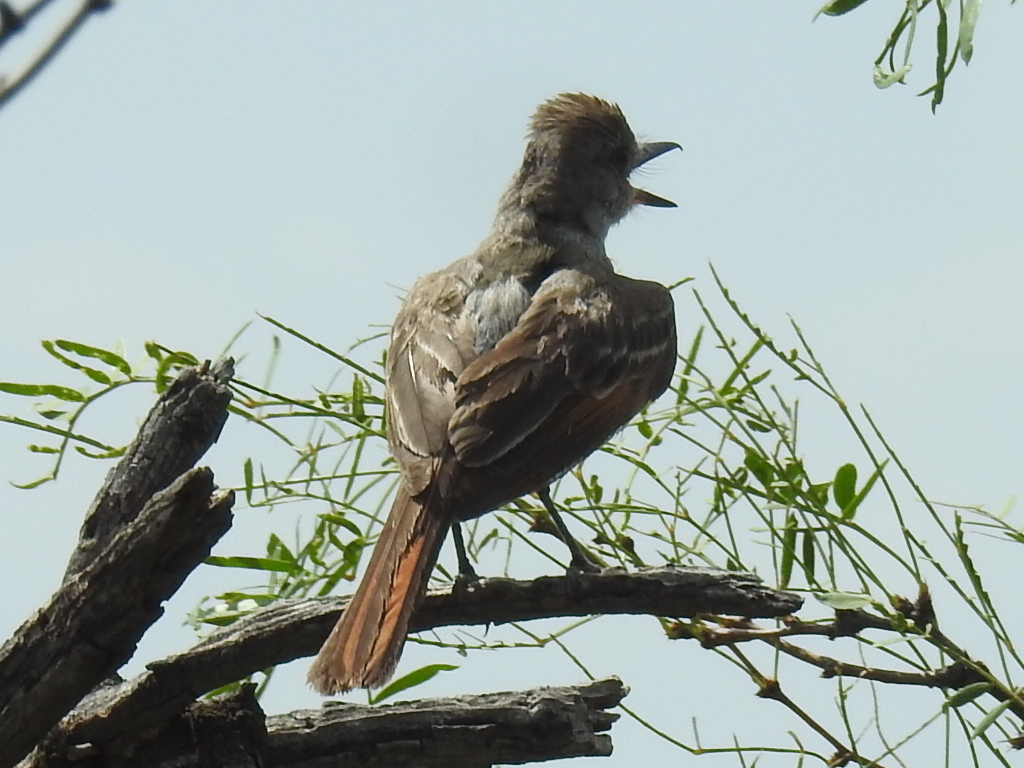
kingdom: Animalia
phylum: Chordata
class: Aves
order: Passeriformes
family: Tyrannidae
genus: Myiarchus
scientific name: Myiarchus cinerascens
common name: Ash-throated flycatcher
